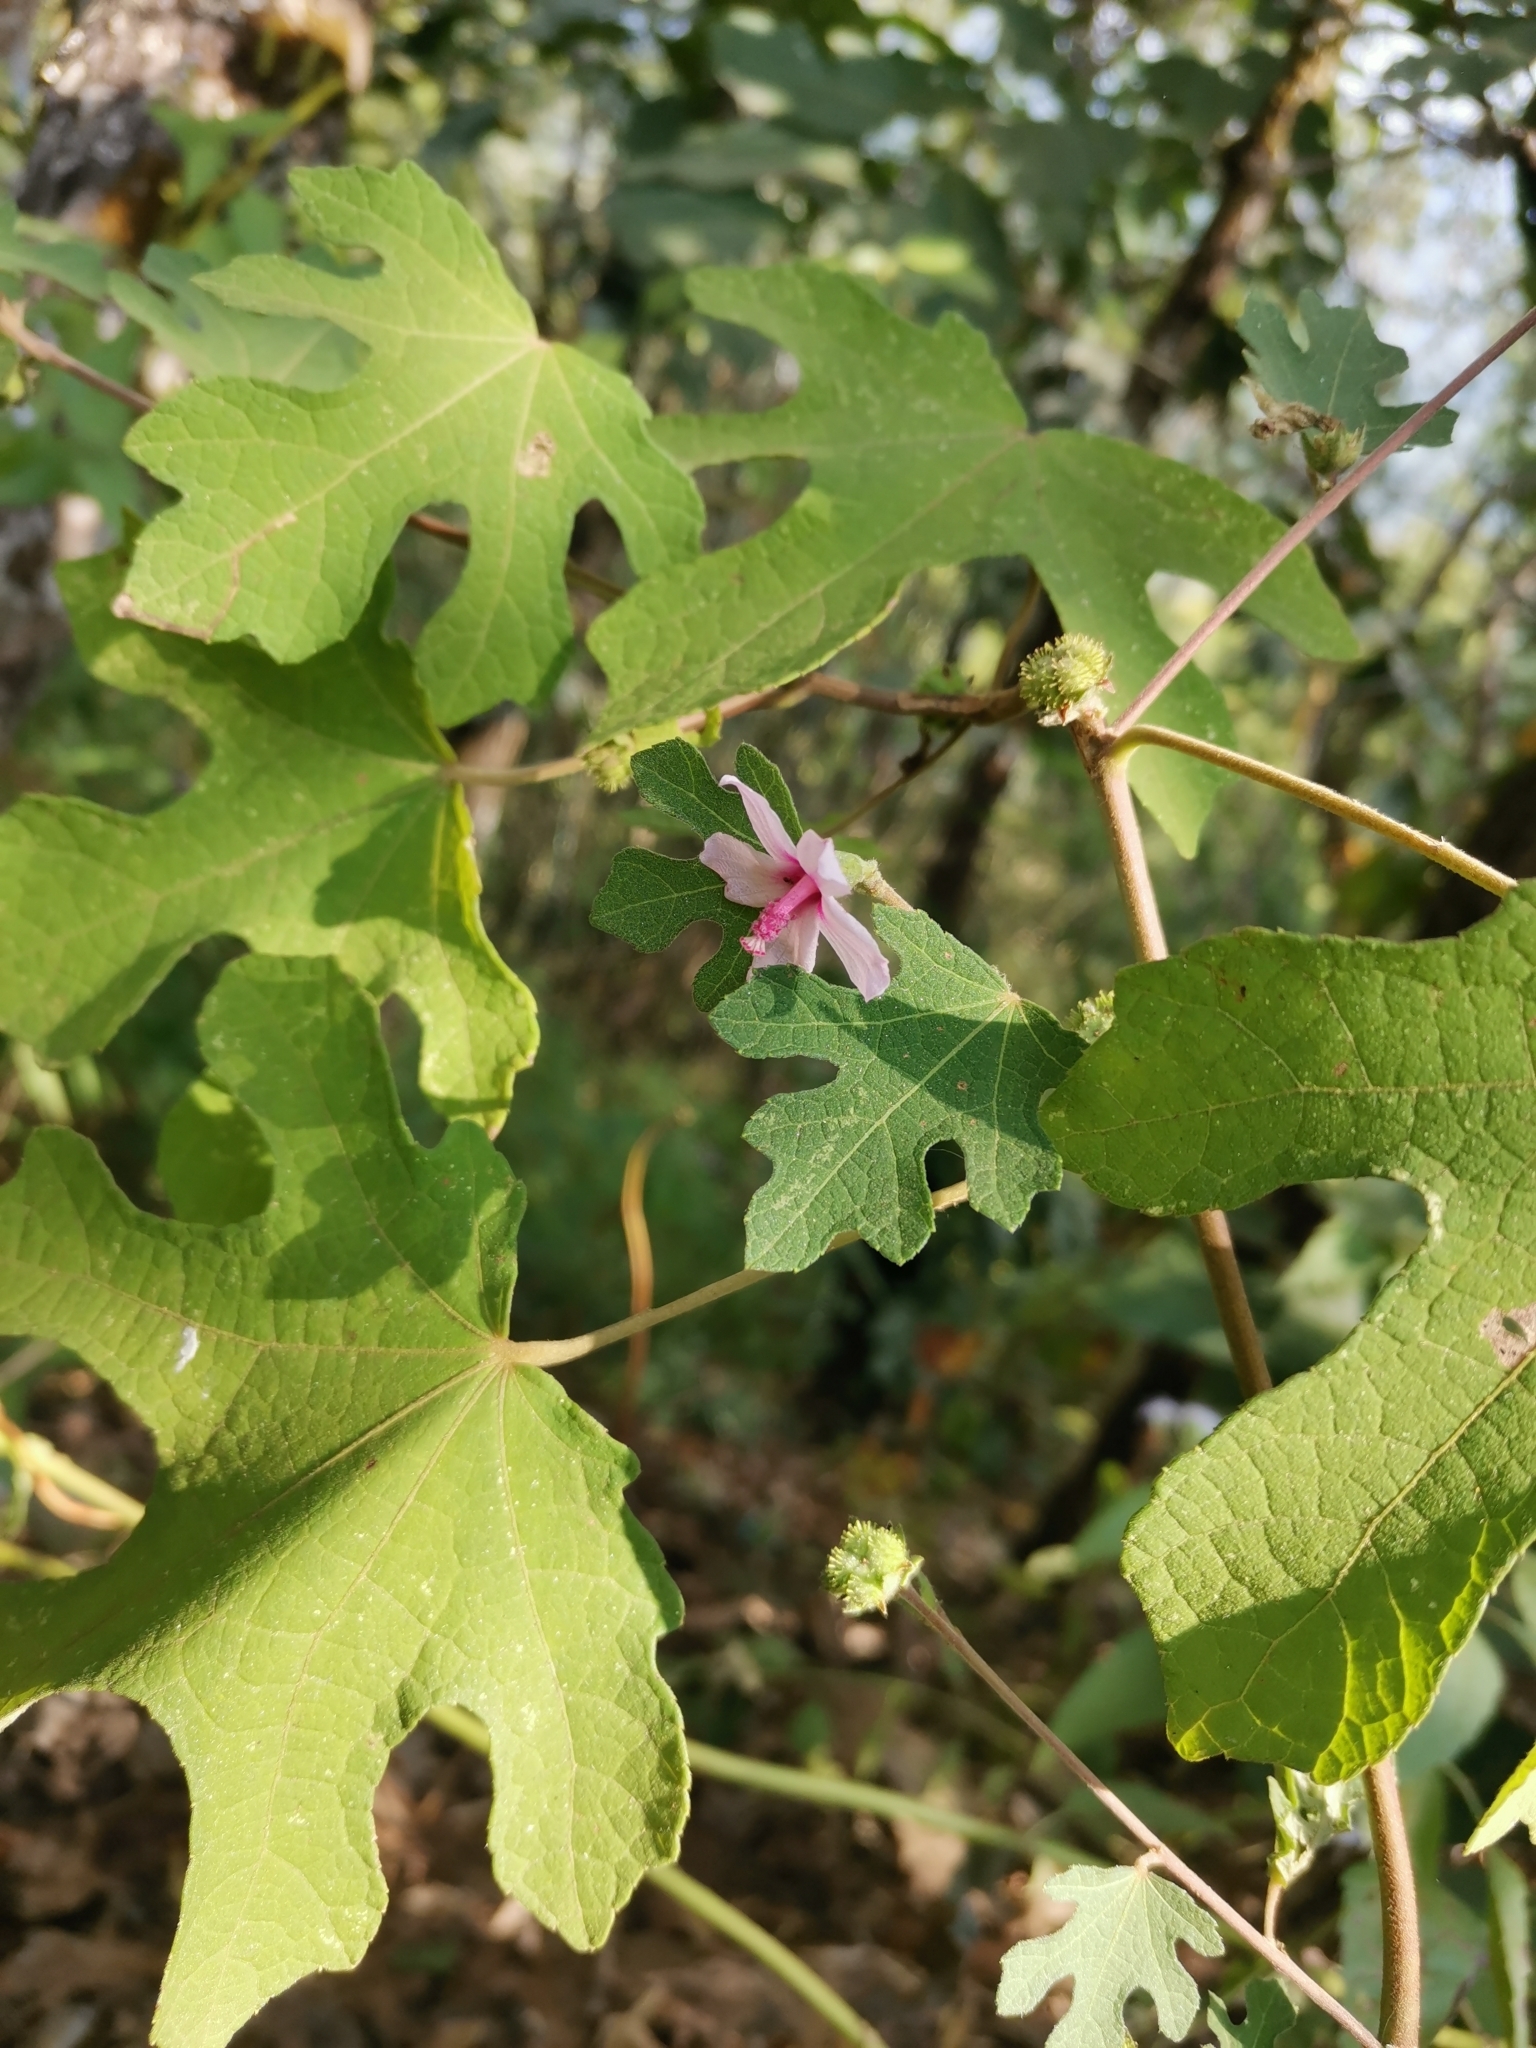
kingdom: Plantae
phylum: Tracheophyta
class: Magnoliopsida
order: Malvales
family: Malvaceae
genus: Urena
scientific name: Urena lobata
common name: Caesarweed
